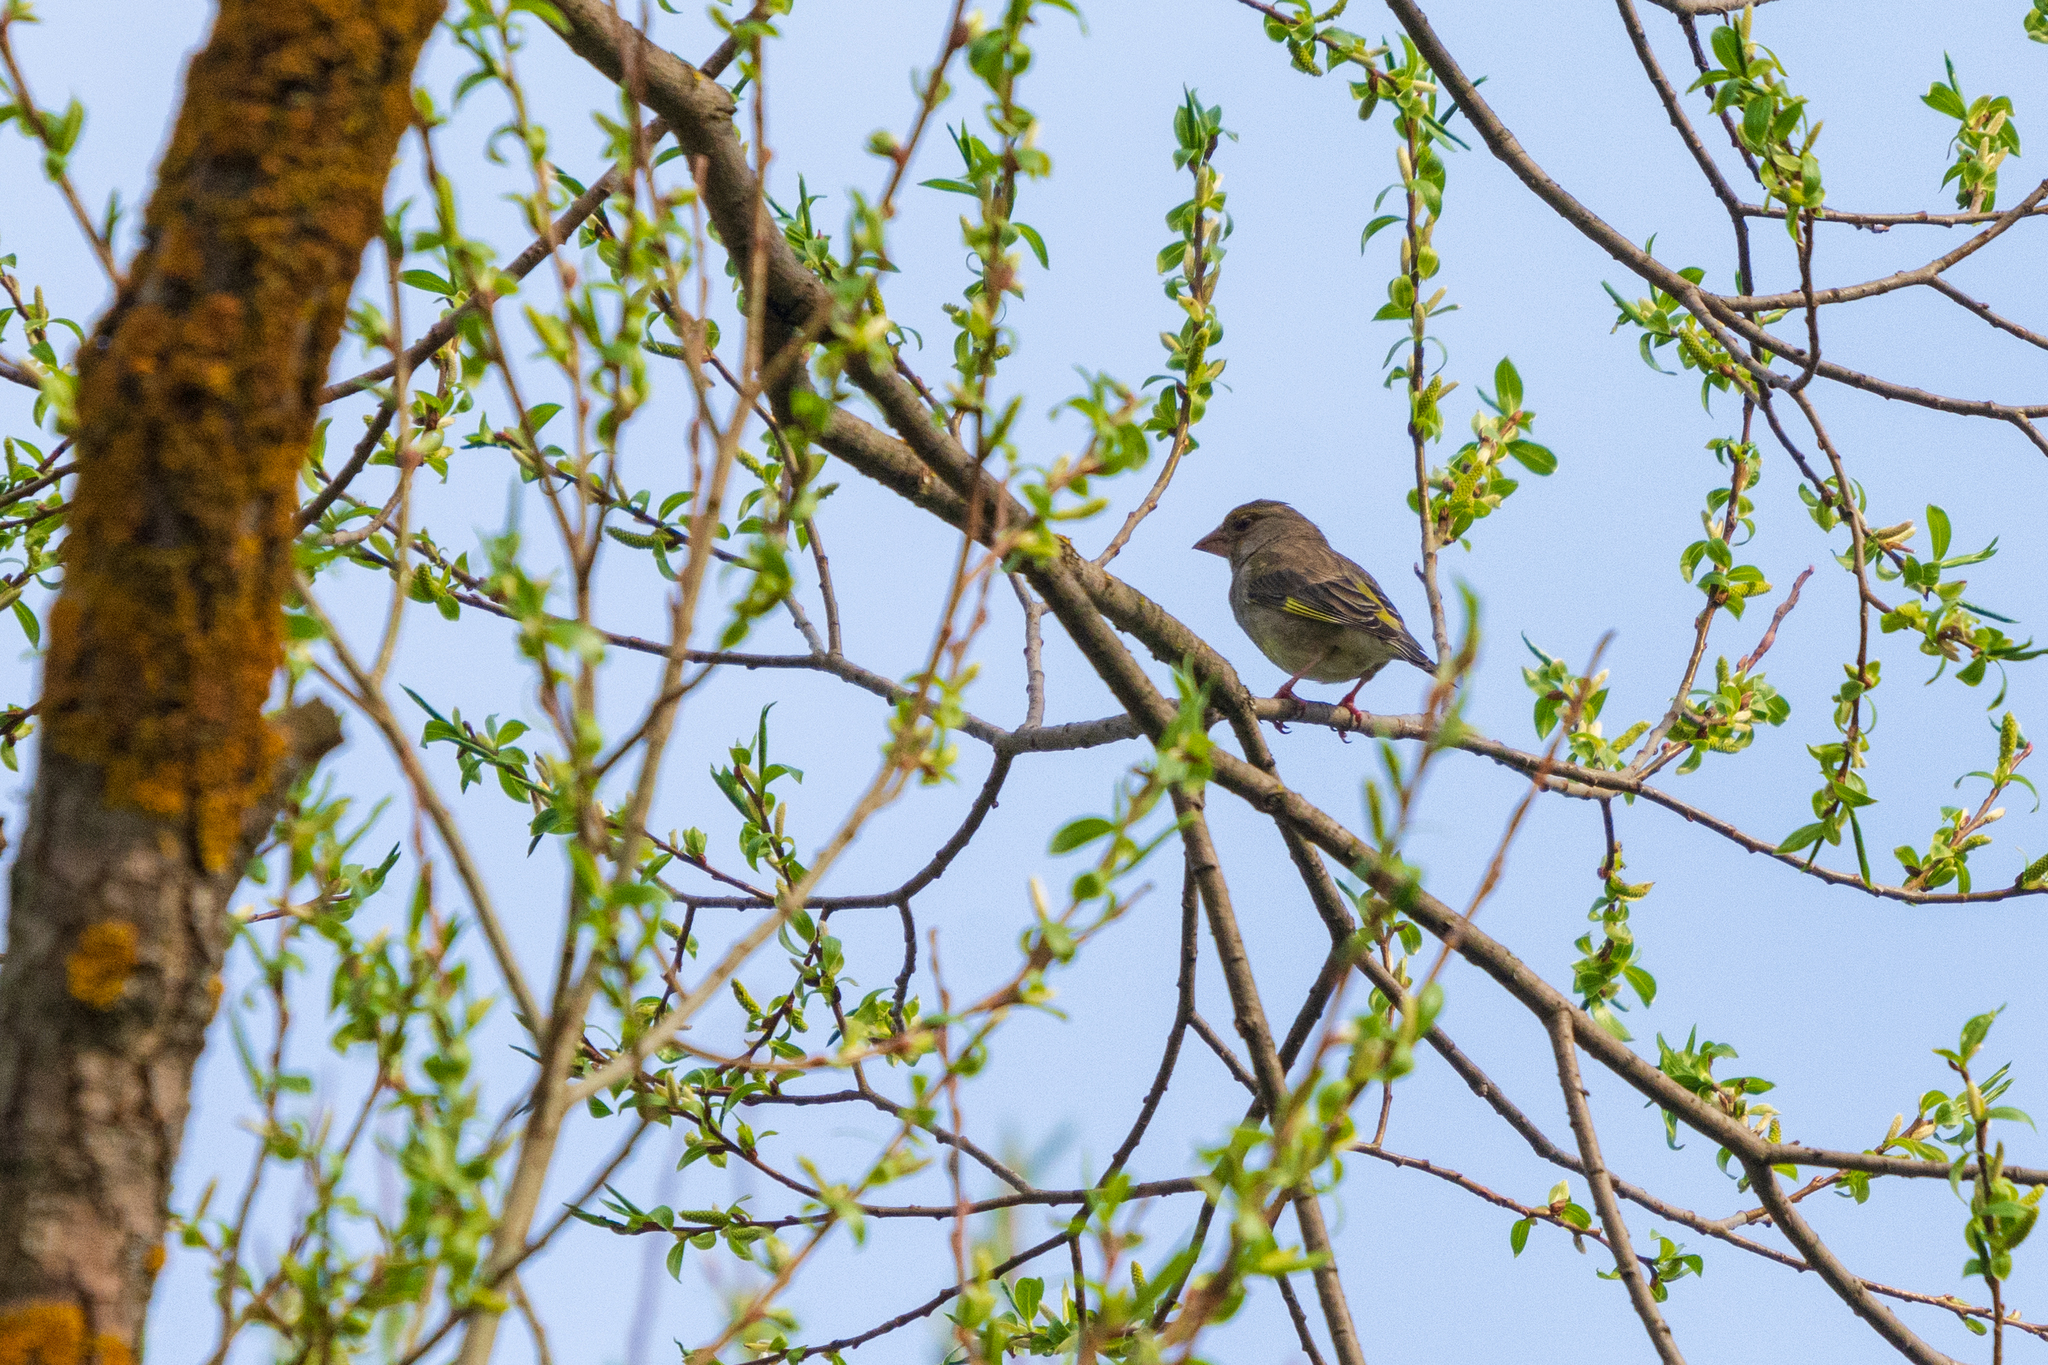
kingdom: Plantae
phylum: Tracheophyta
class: Liliopsida
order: Poales
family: Poaceae
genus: Chloris
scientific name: Chloris chloris
